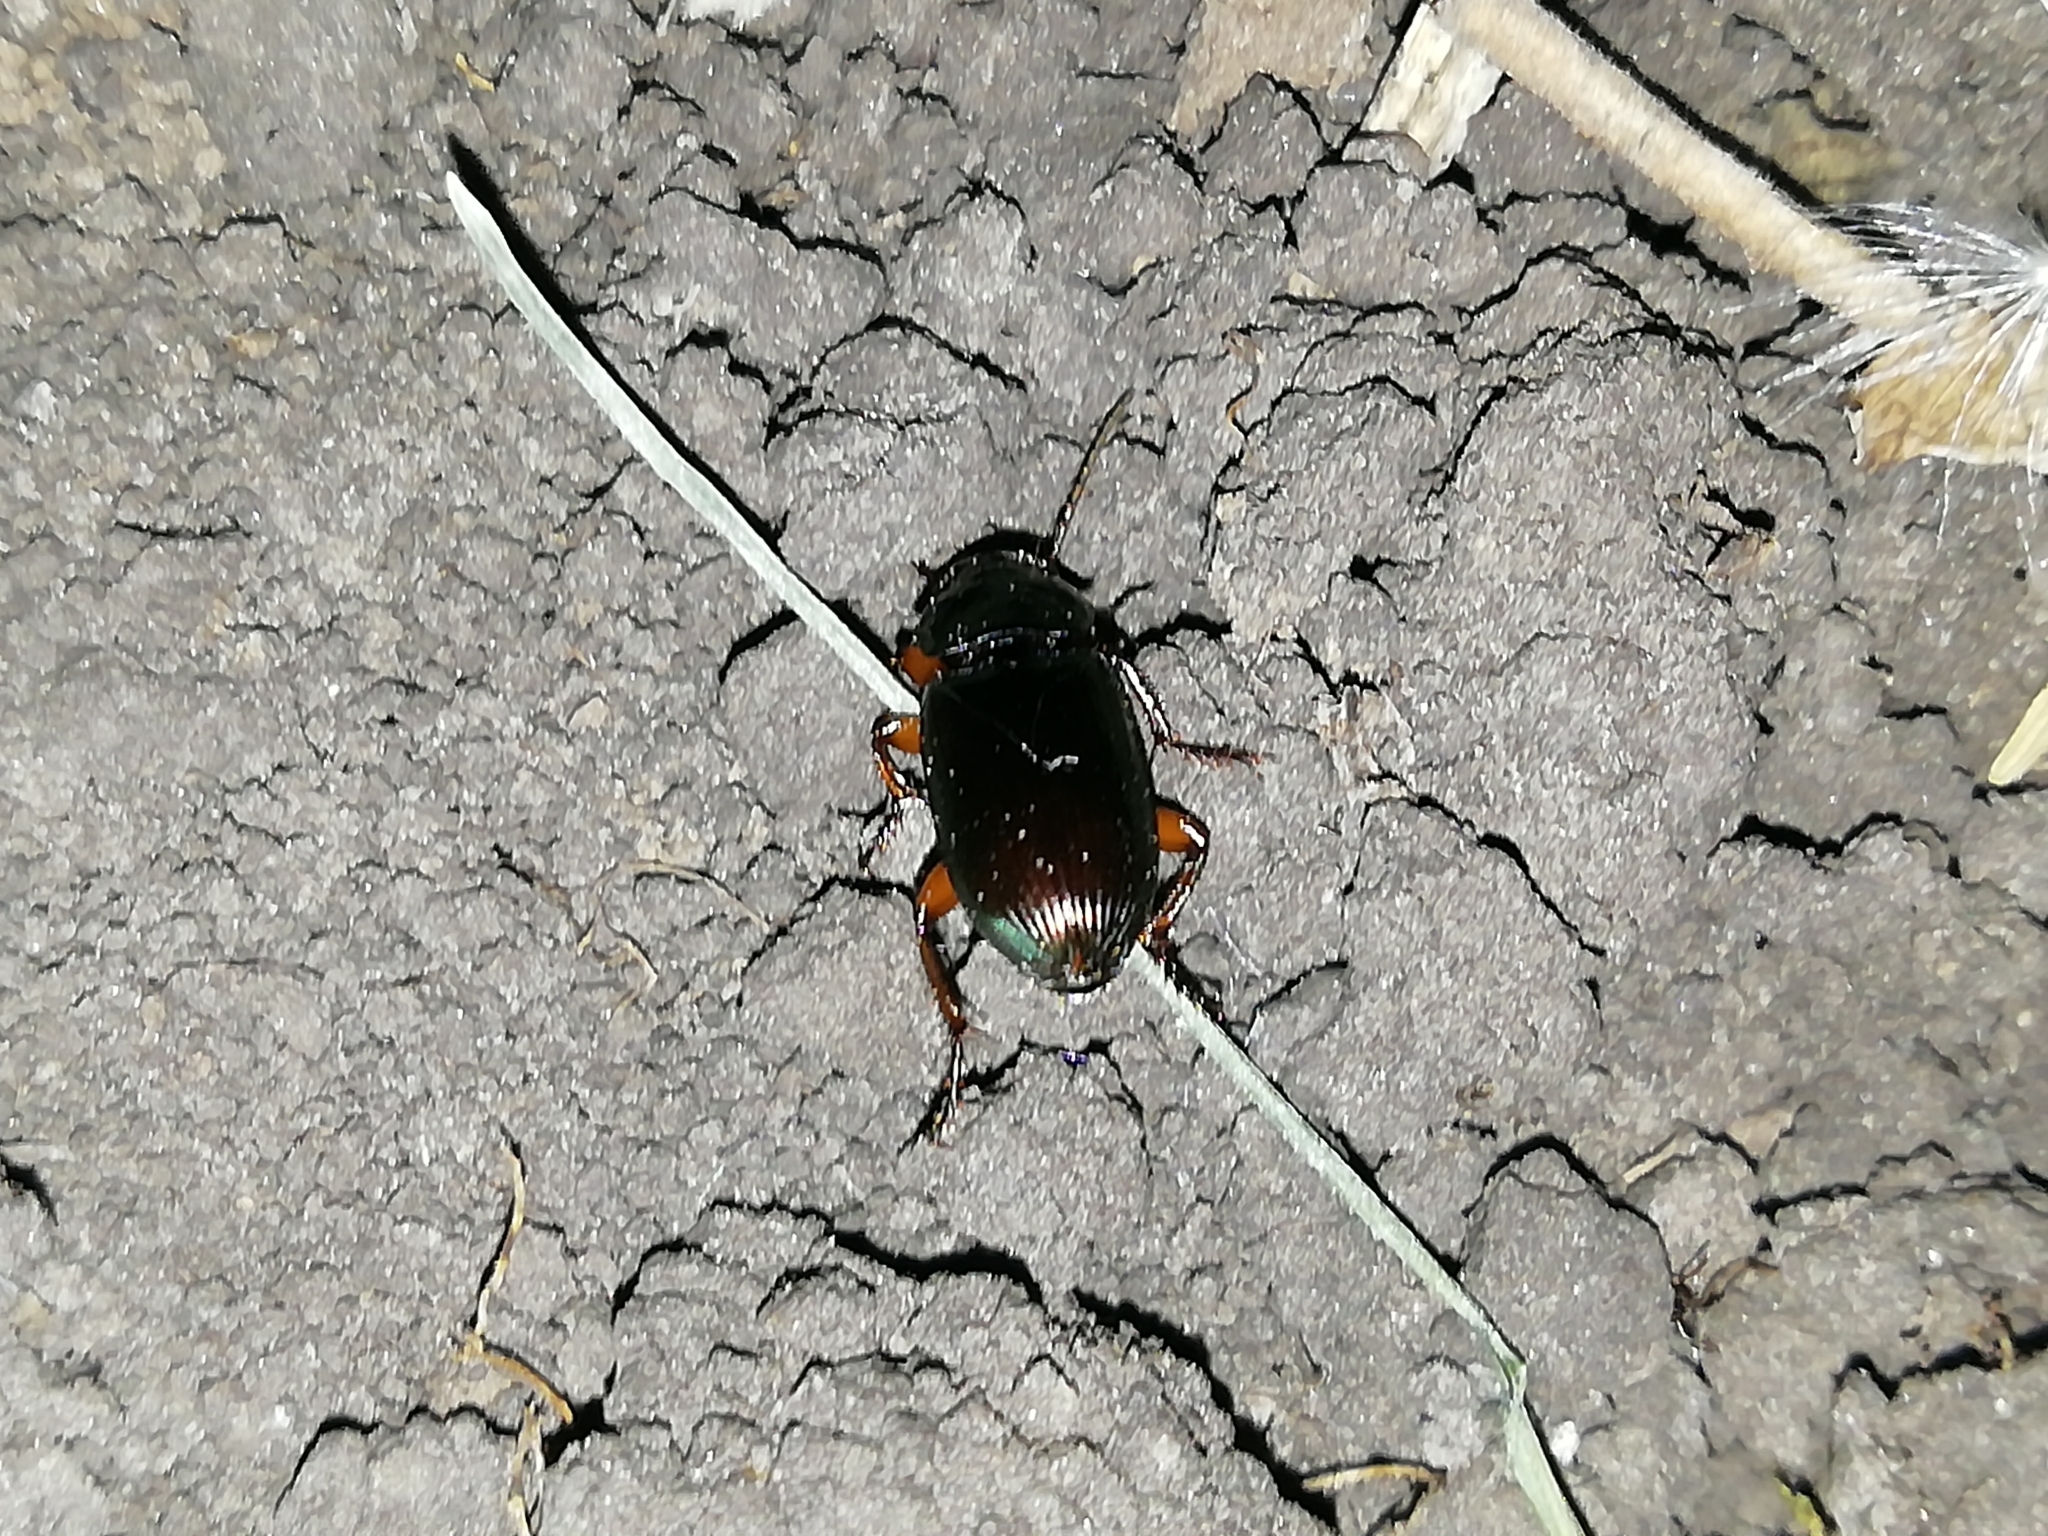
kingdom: Animalia
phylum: Arthropoda
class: Insecta
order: Coleoptera
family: Carabidae
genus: Harpalus
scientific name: Harpalus affinis
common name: Polychrome harp ground beetle
